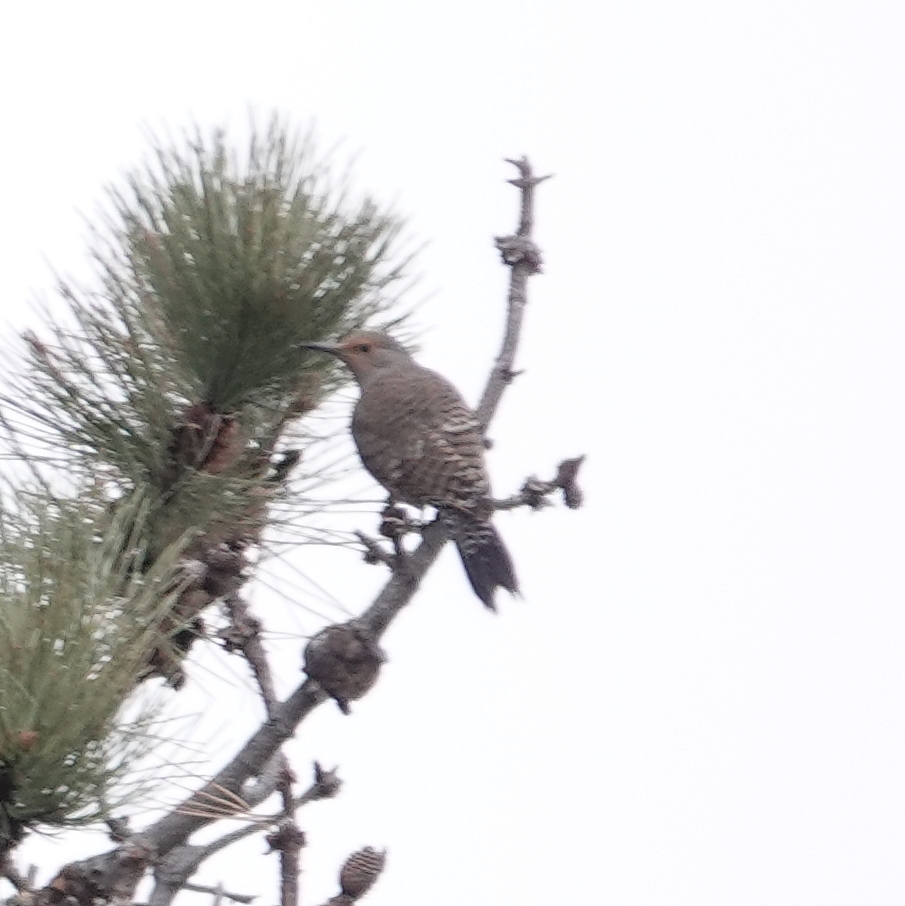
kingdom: Animalia
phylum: Chordata
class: Aves
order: Piciformes
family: Picidae
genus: Colaptes
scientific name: Colaptes auratus
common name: Northern flicker
